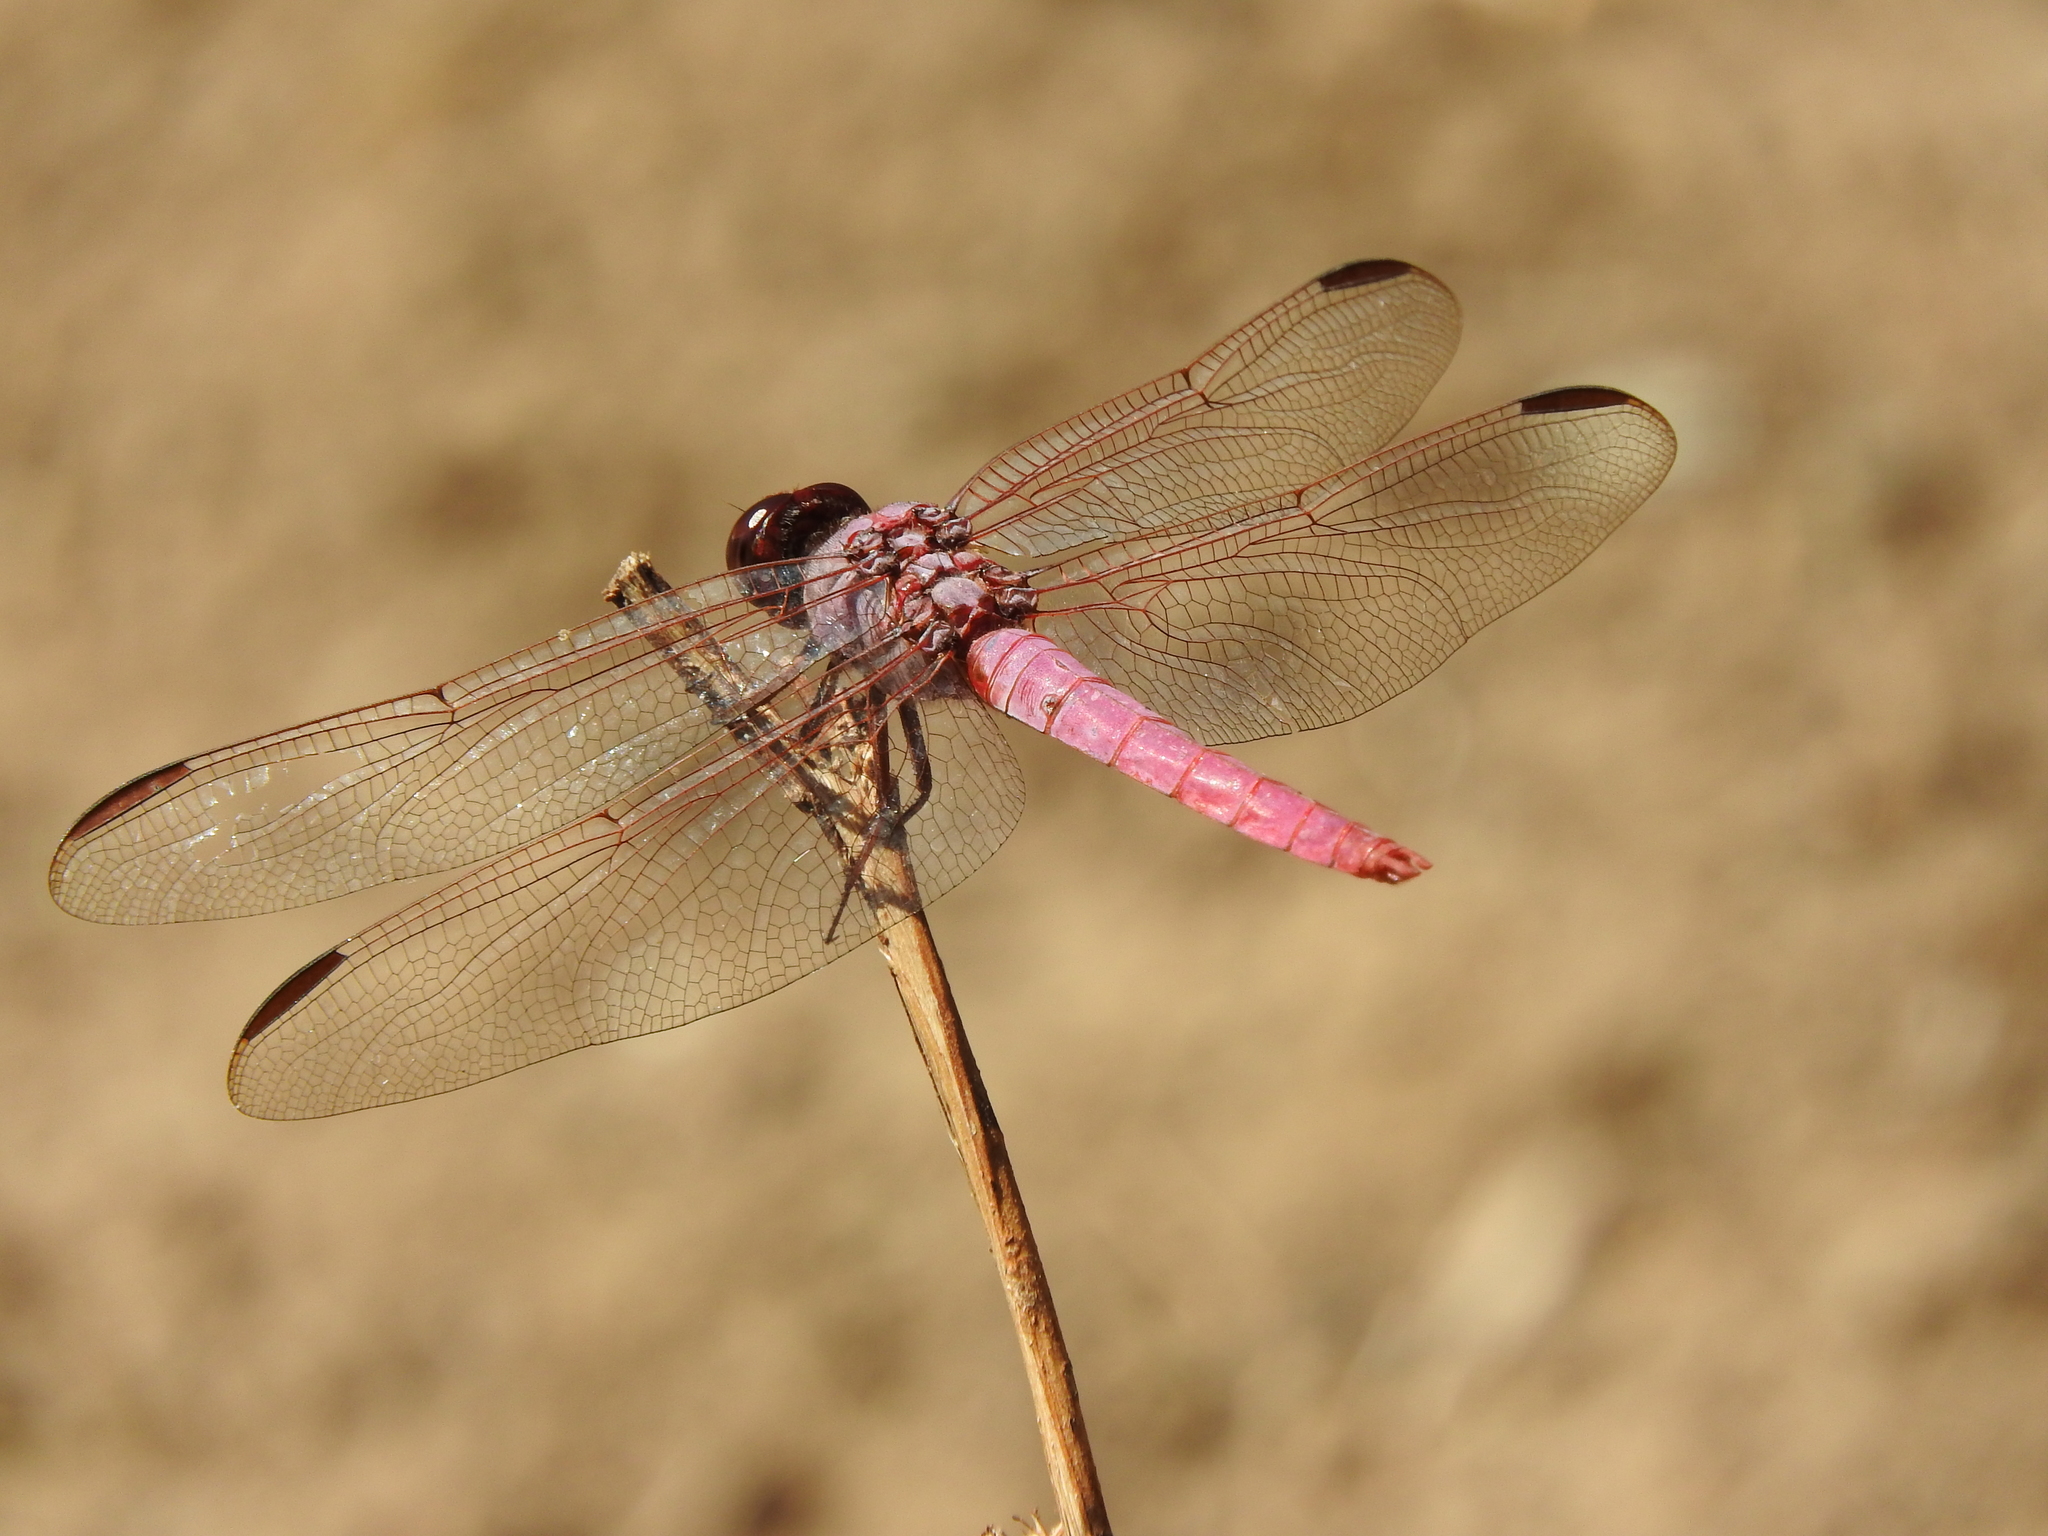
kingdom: Animalia
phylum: Arthropoda
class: Insecta
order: Odonata
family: Libellulidae
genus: Orthemis
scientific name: Orthemis ferruginea
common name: Roseate skimmer
